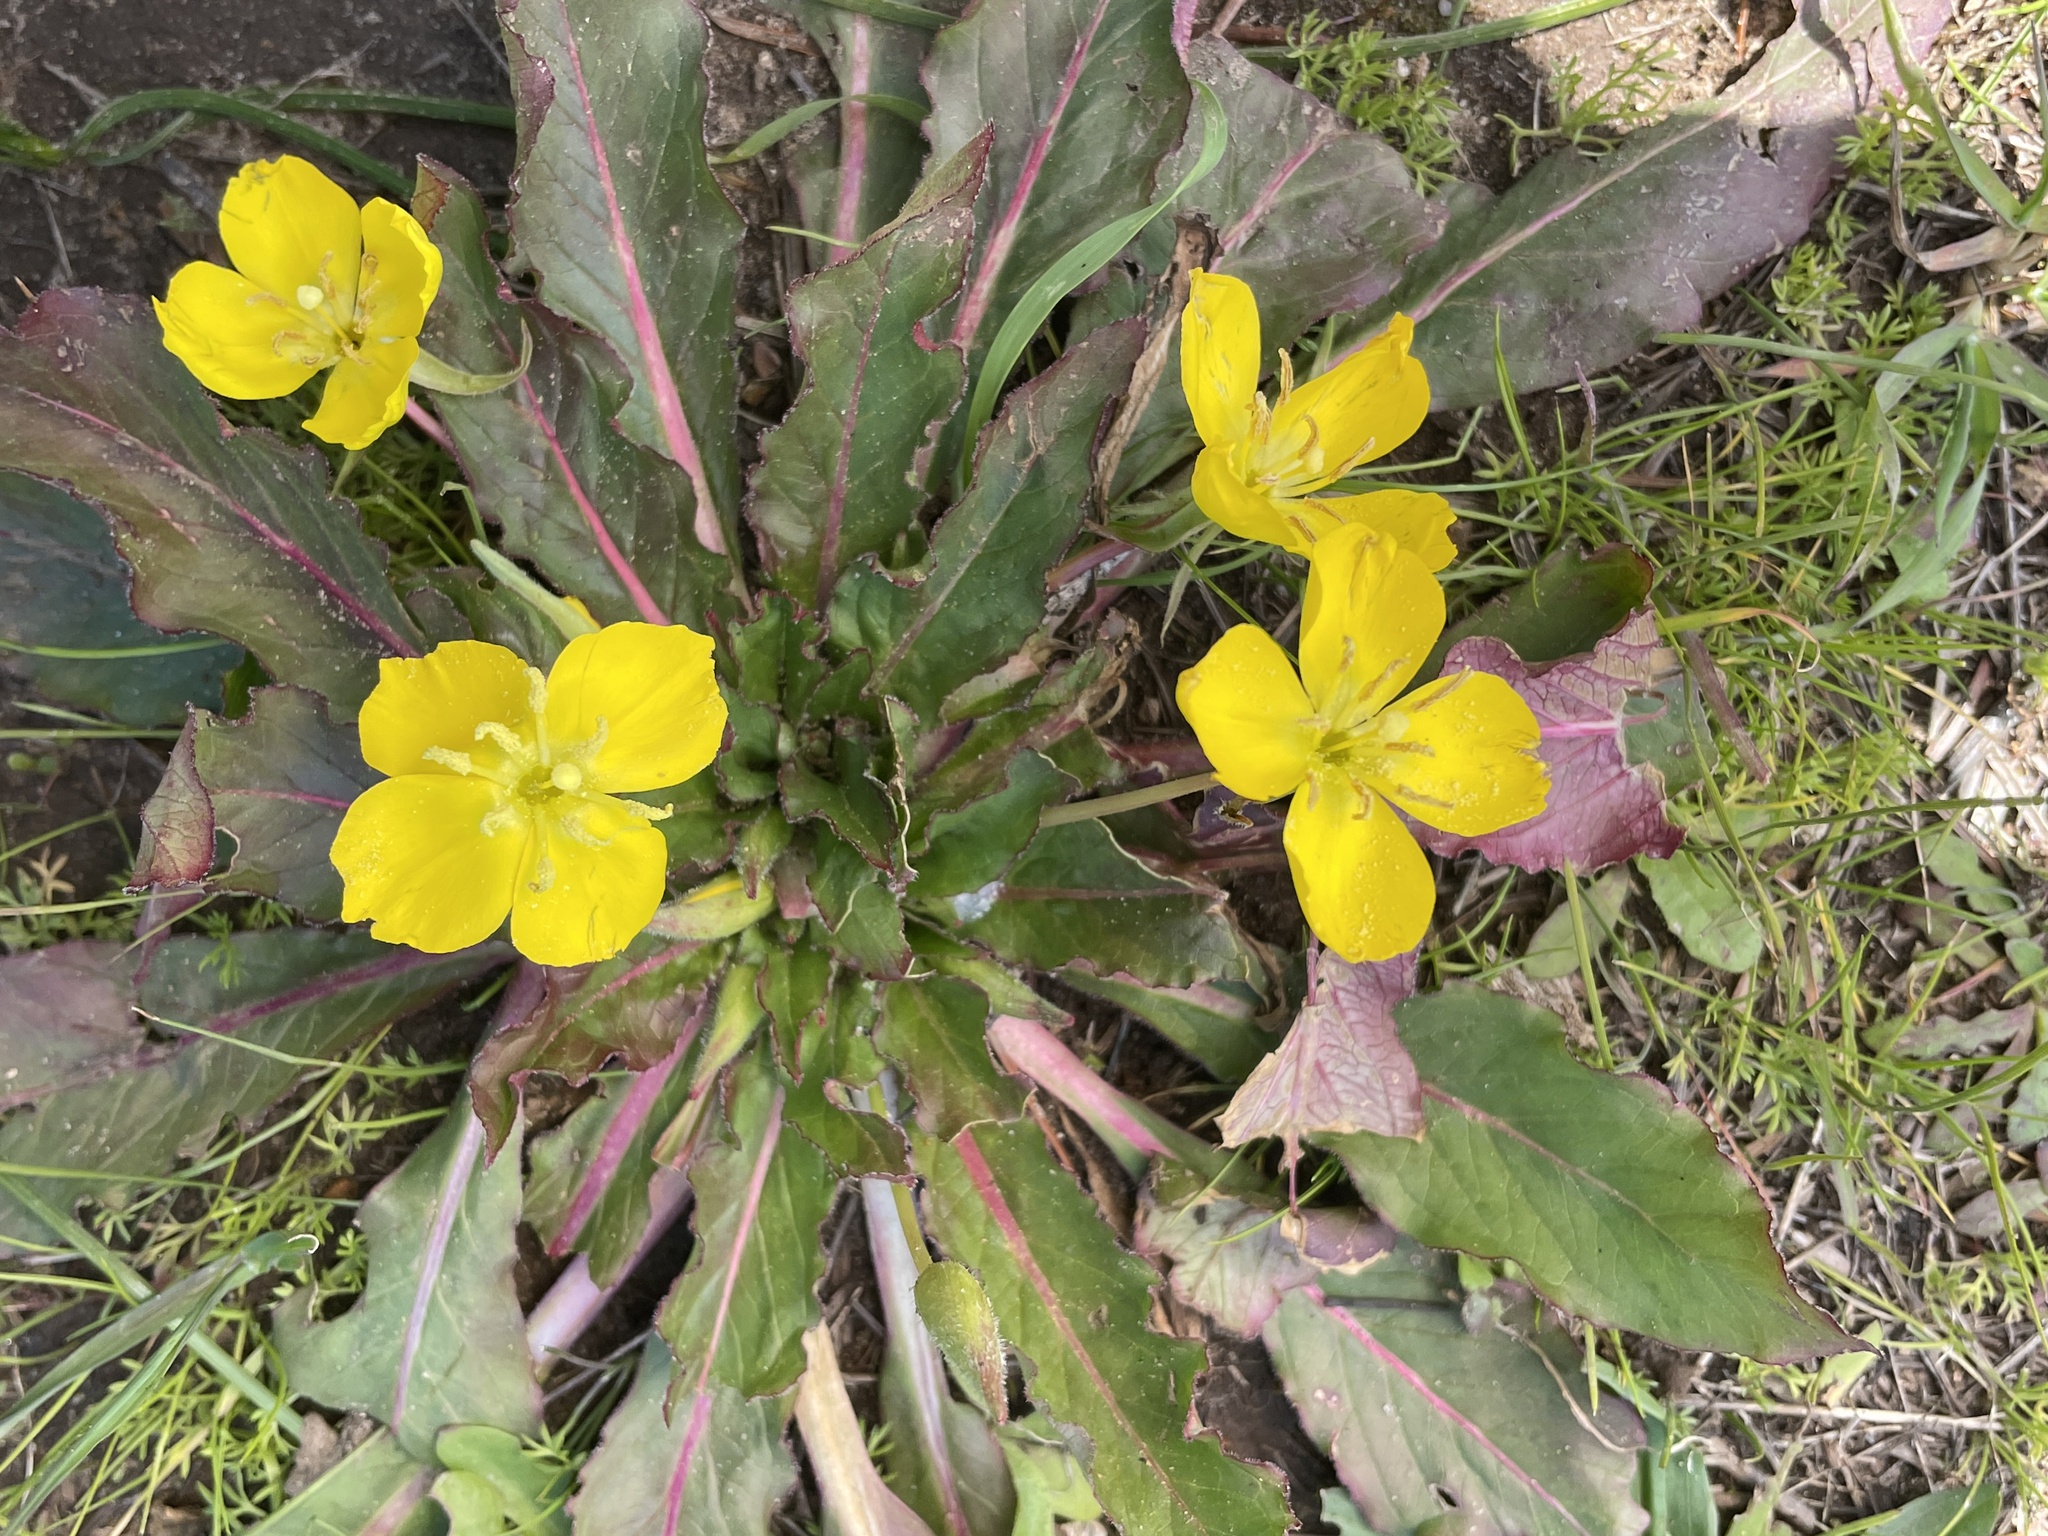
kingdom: Plantae
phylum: Tracheophyta
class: Magnoliopsida
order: Myrtales
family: Onagraceae
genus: Taraxia
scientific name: Taraxia ovata
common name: Goldeneggs
